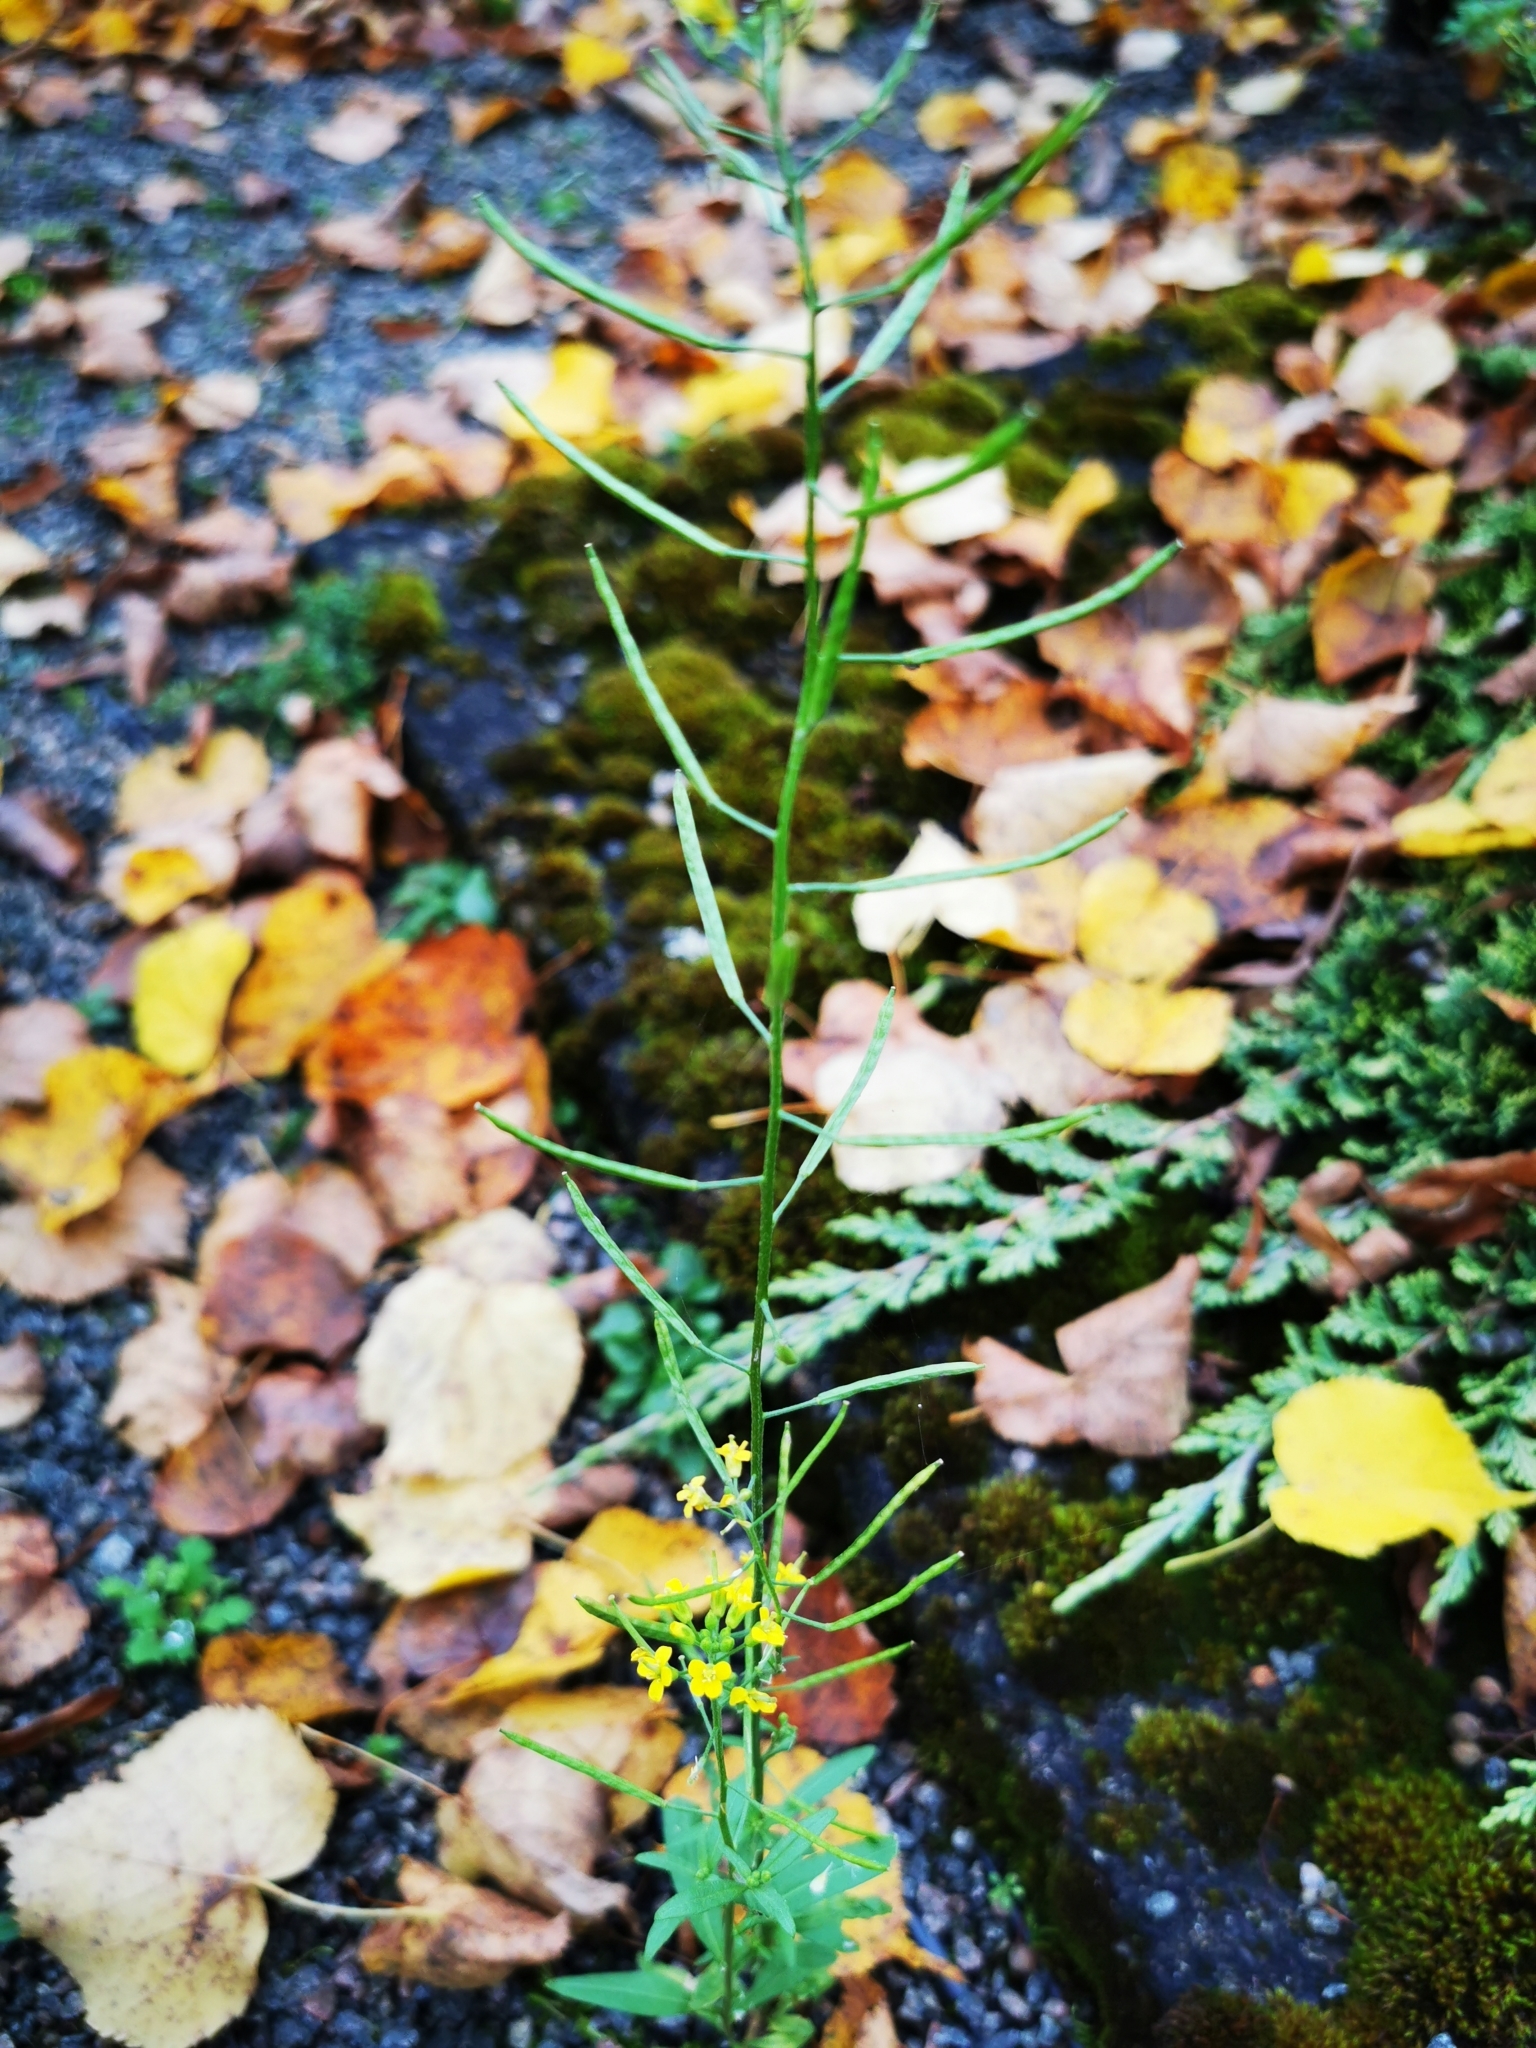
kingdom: Plantae
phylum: Tracheophyta
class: Magnoliopsida
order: Brassicales
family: Brassicaceae
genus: Erysimum
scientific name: Erysimum cheiranthoides
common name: Treacle mustard
